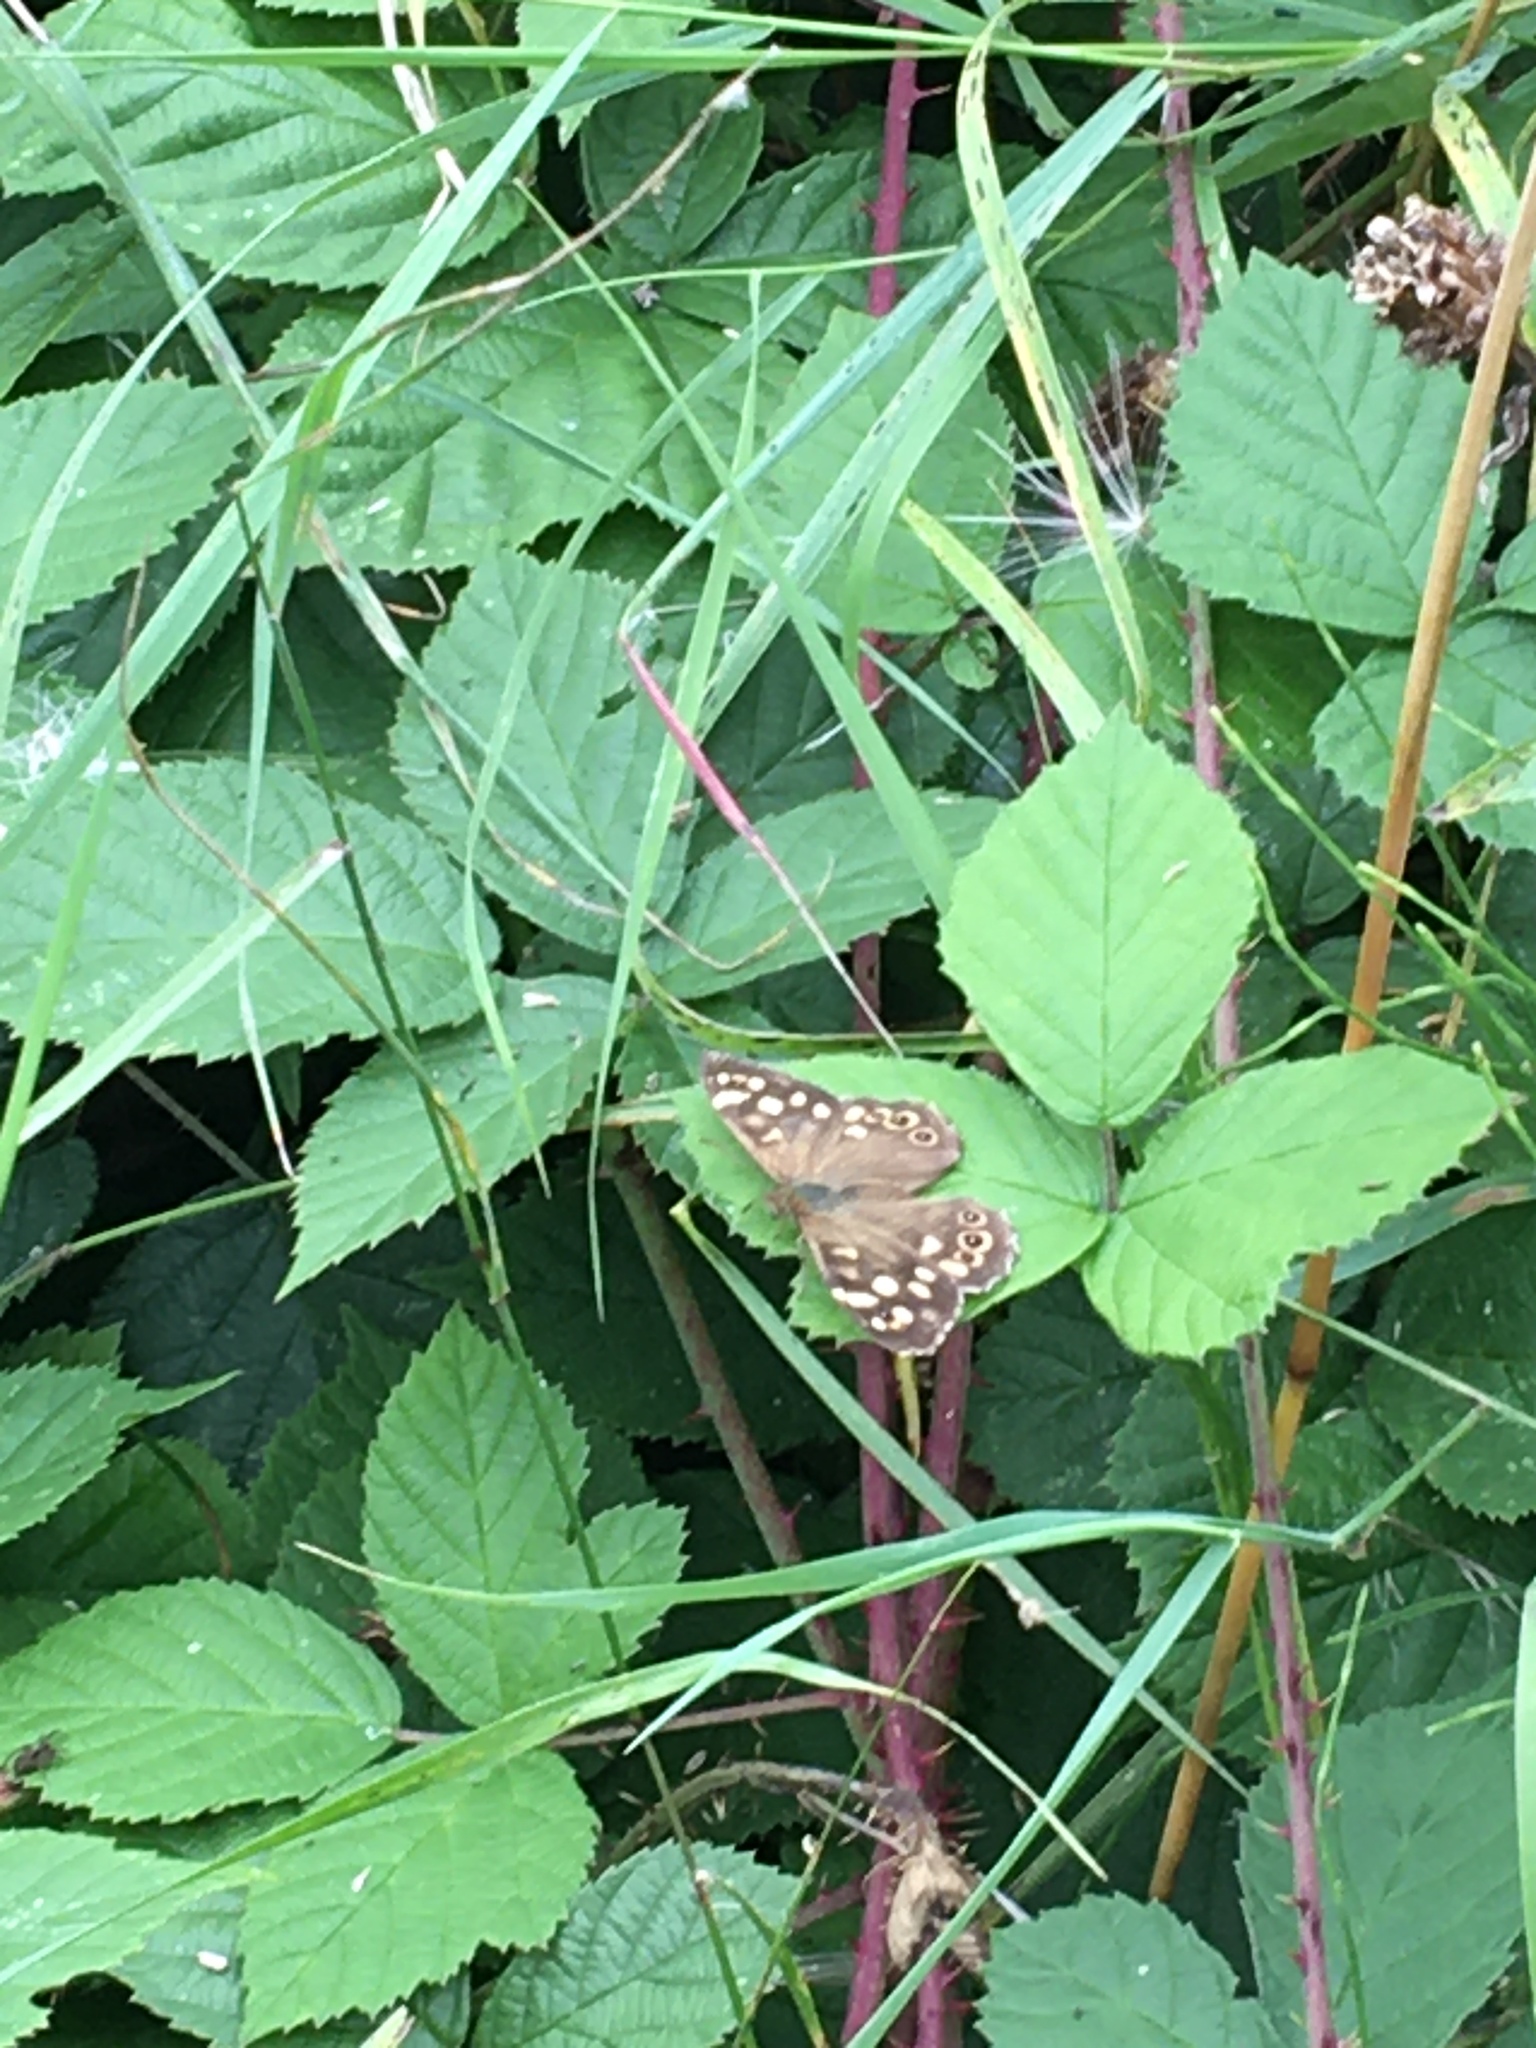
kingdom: Animalia
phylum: Arthropoda
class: Insecta
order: Lepidoptera
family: Nymphalidae
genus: Pararge
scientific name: Pararge aegeria
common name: Speckled wood
